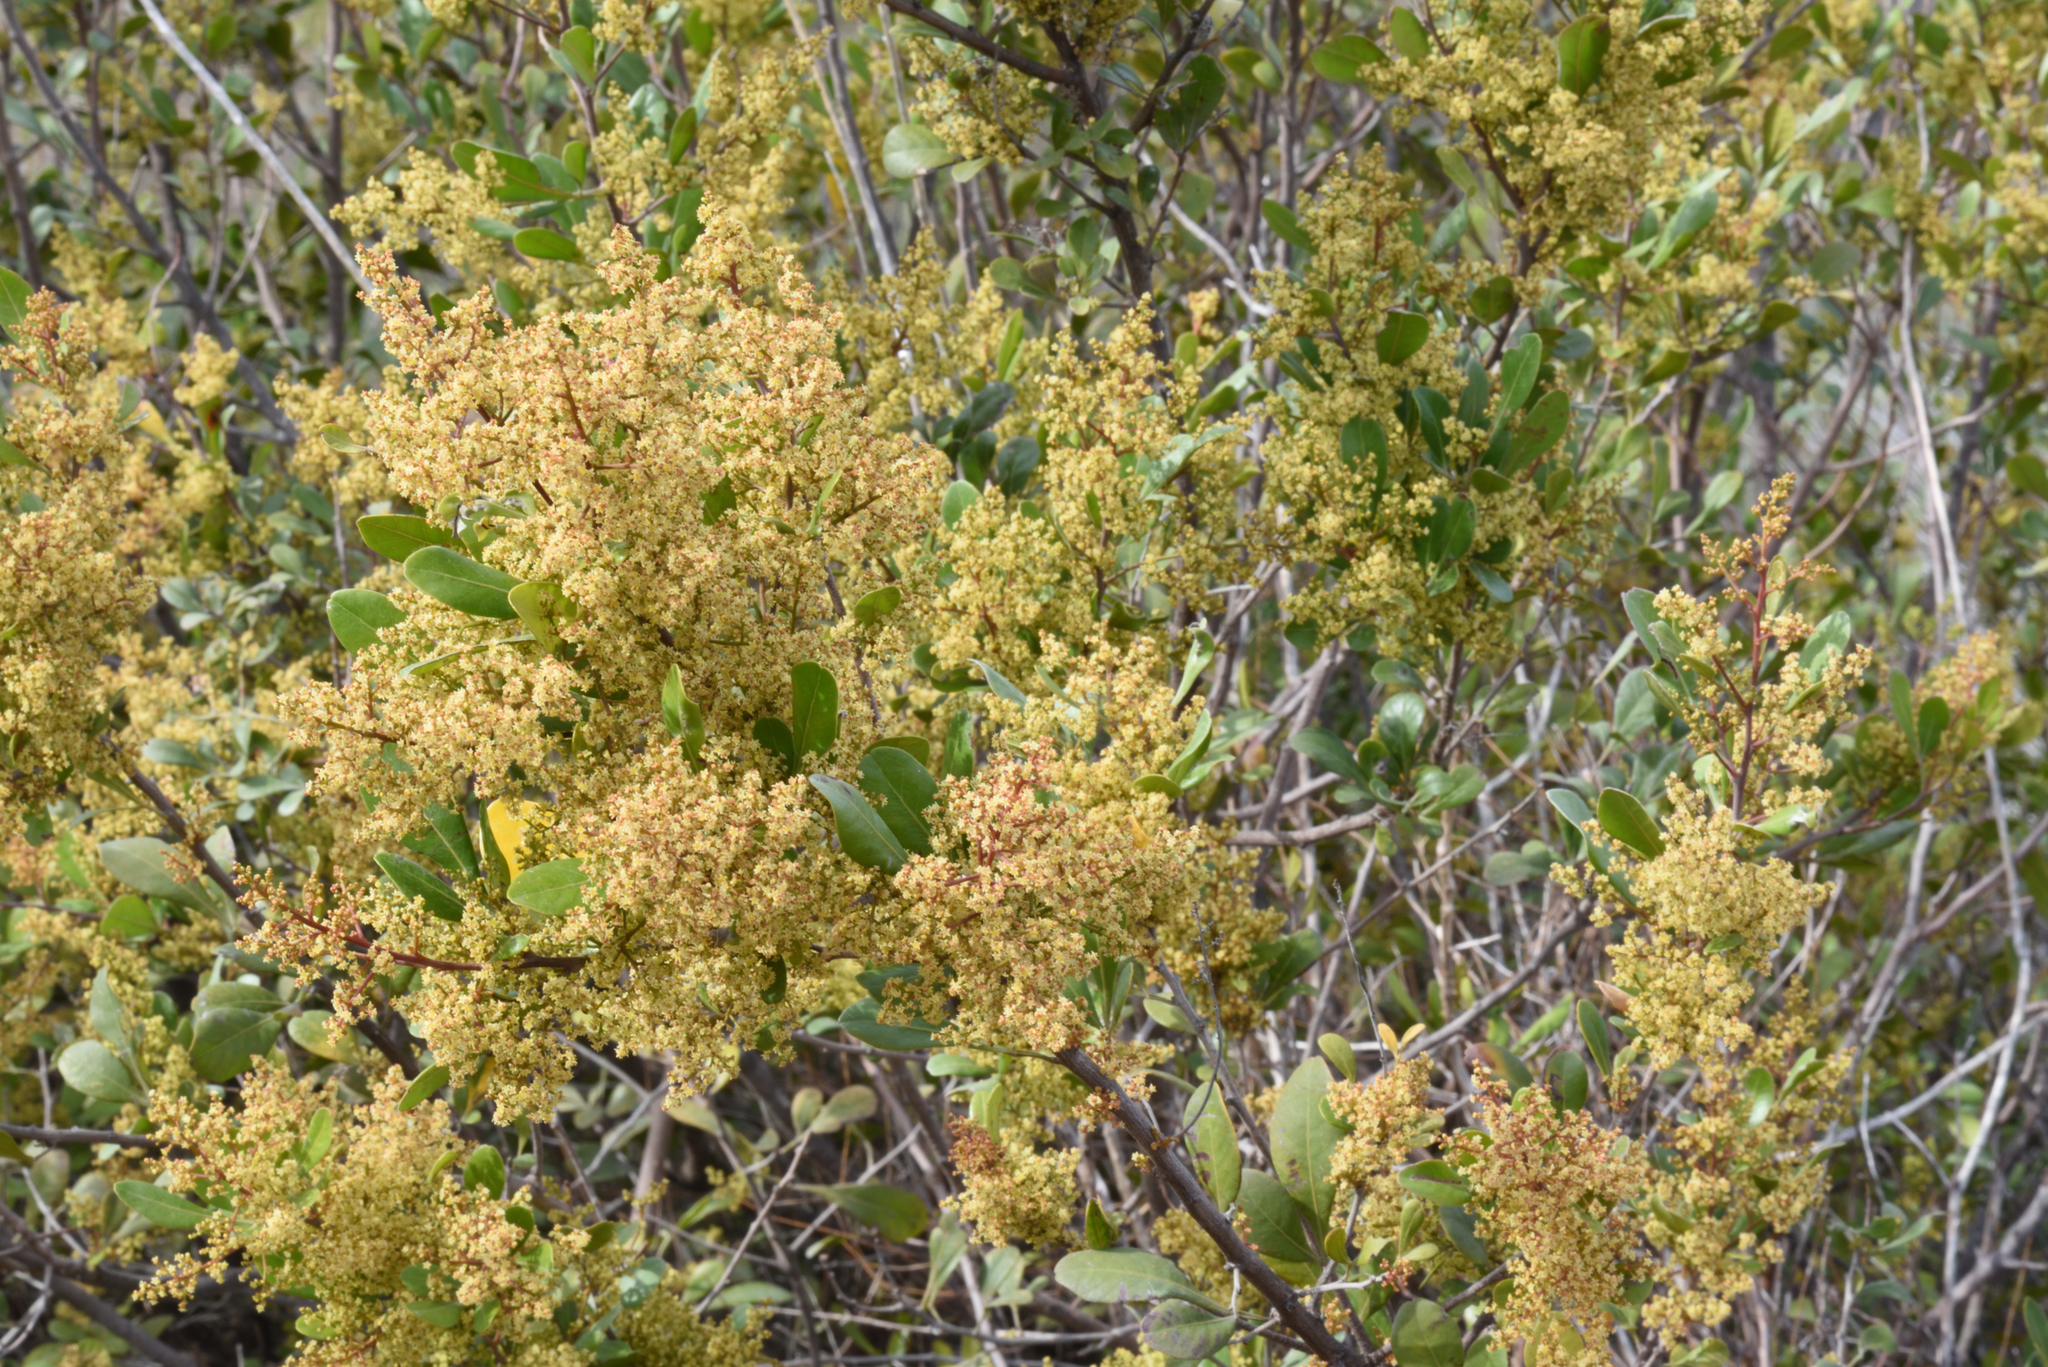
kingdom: Plantae
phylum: Tracheophyta
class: Magnoliopsida
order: Sapindales
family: Anacardiaceae
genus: Searsia
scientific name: Searsia lucida
